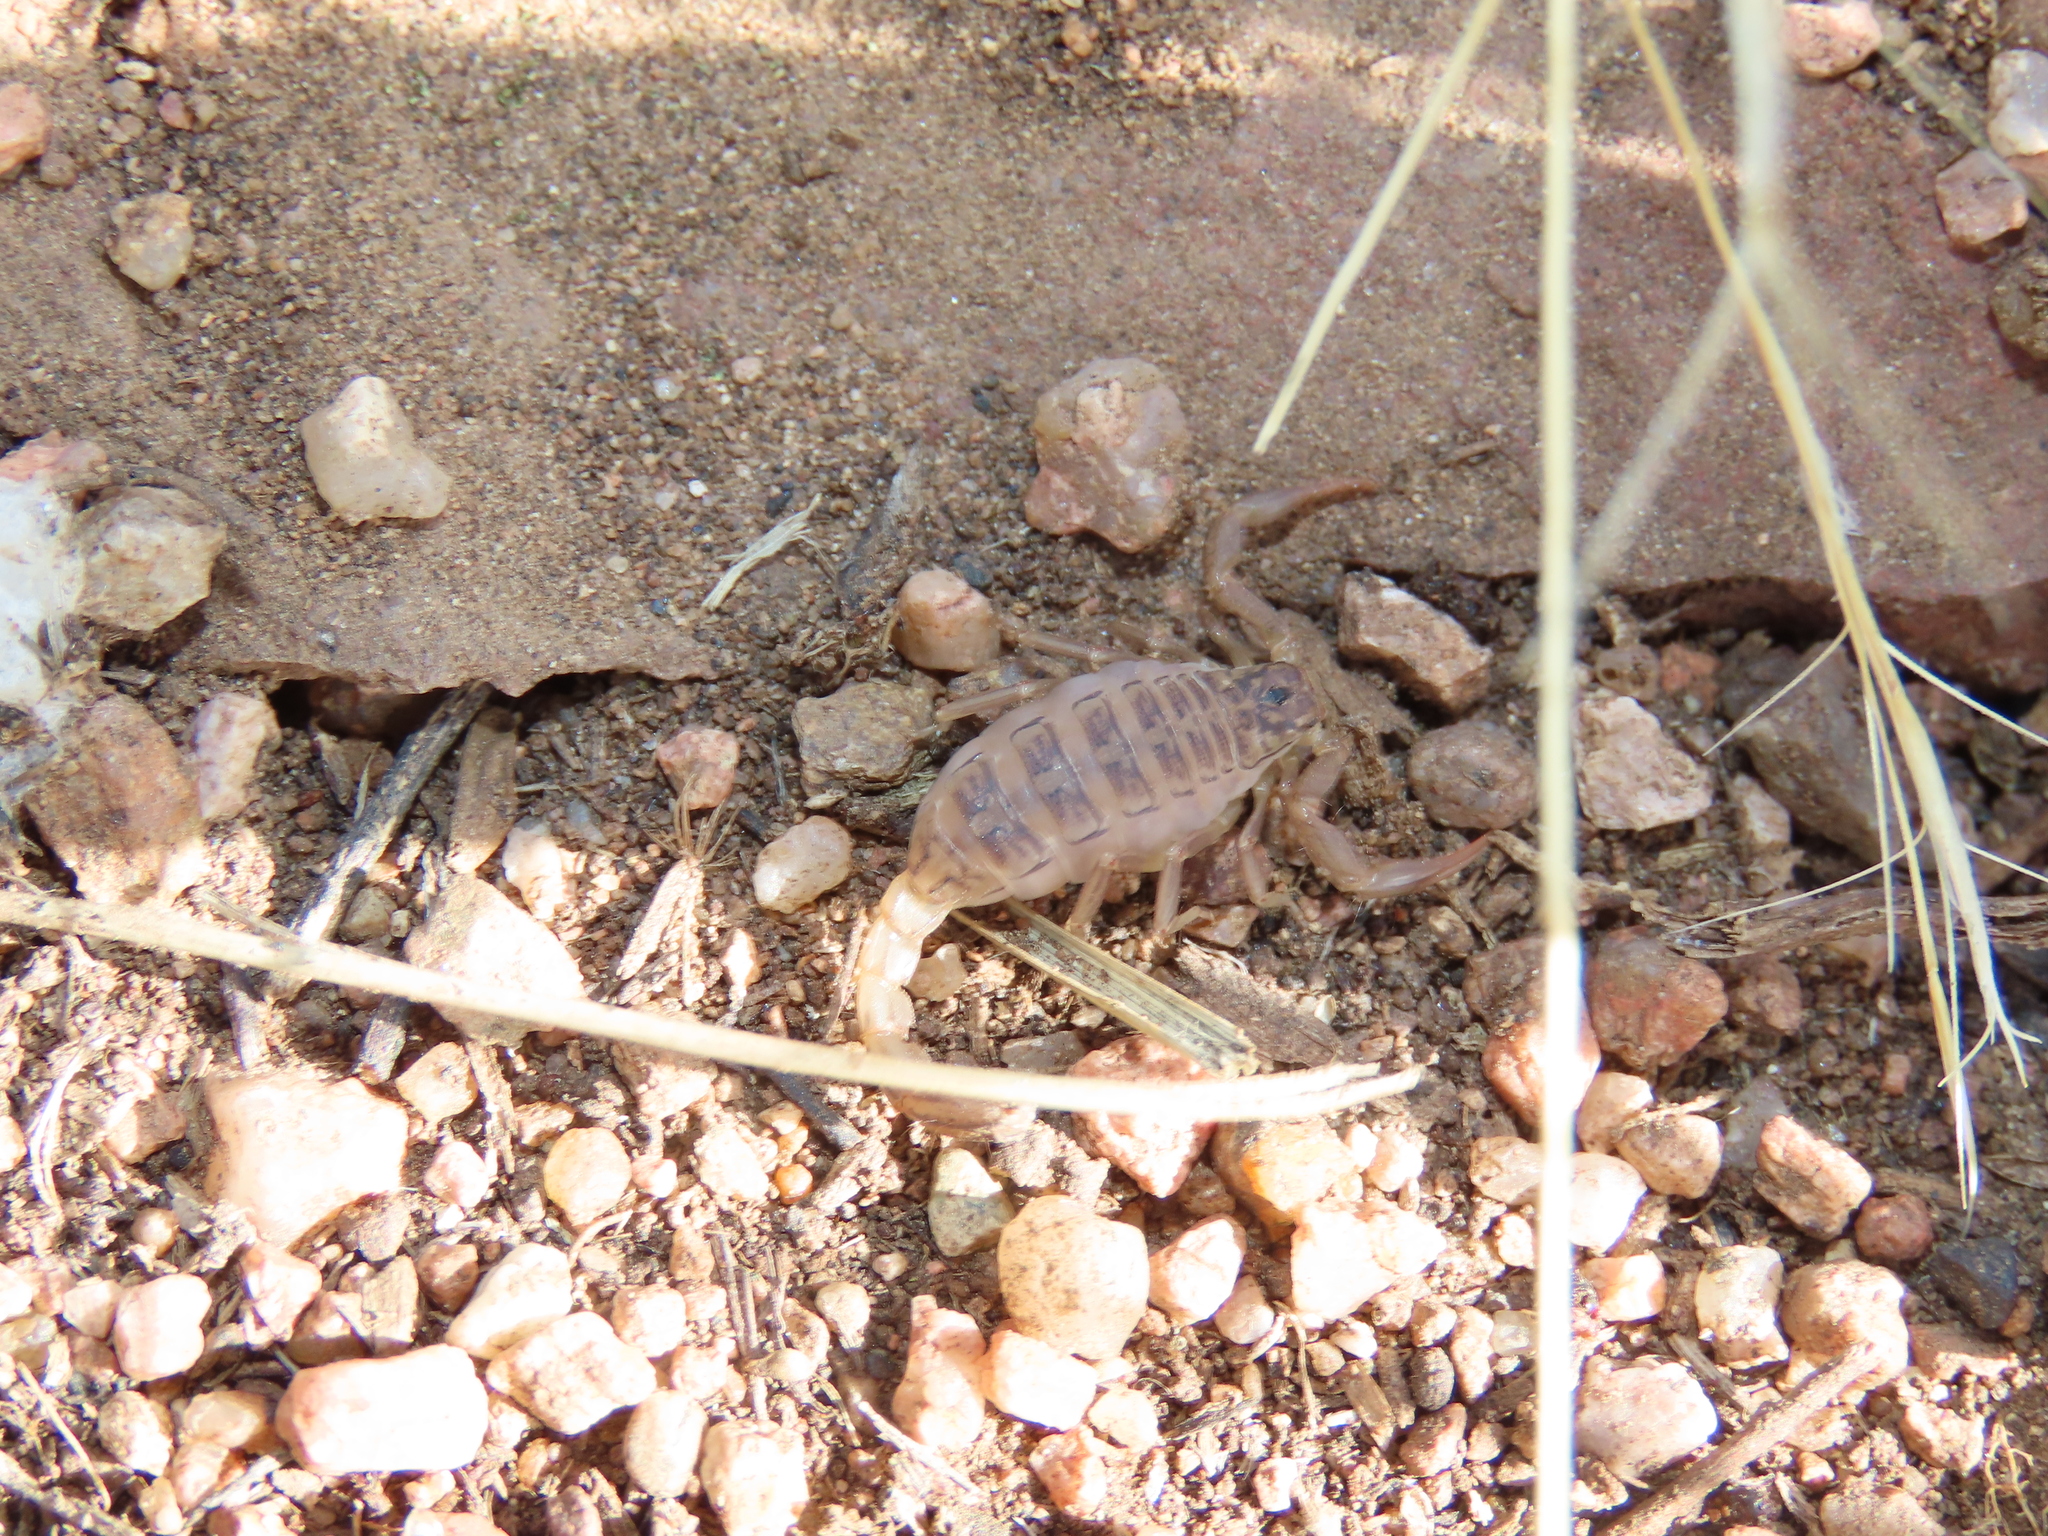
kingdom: Animalia
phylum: Arthropoda
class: Arachnida
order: Scorpiones
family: Vaejovidae
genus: Paravaejovis
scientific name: Paravaejovis spinigerus
